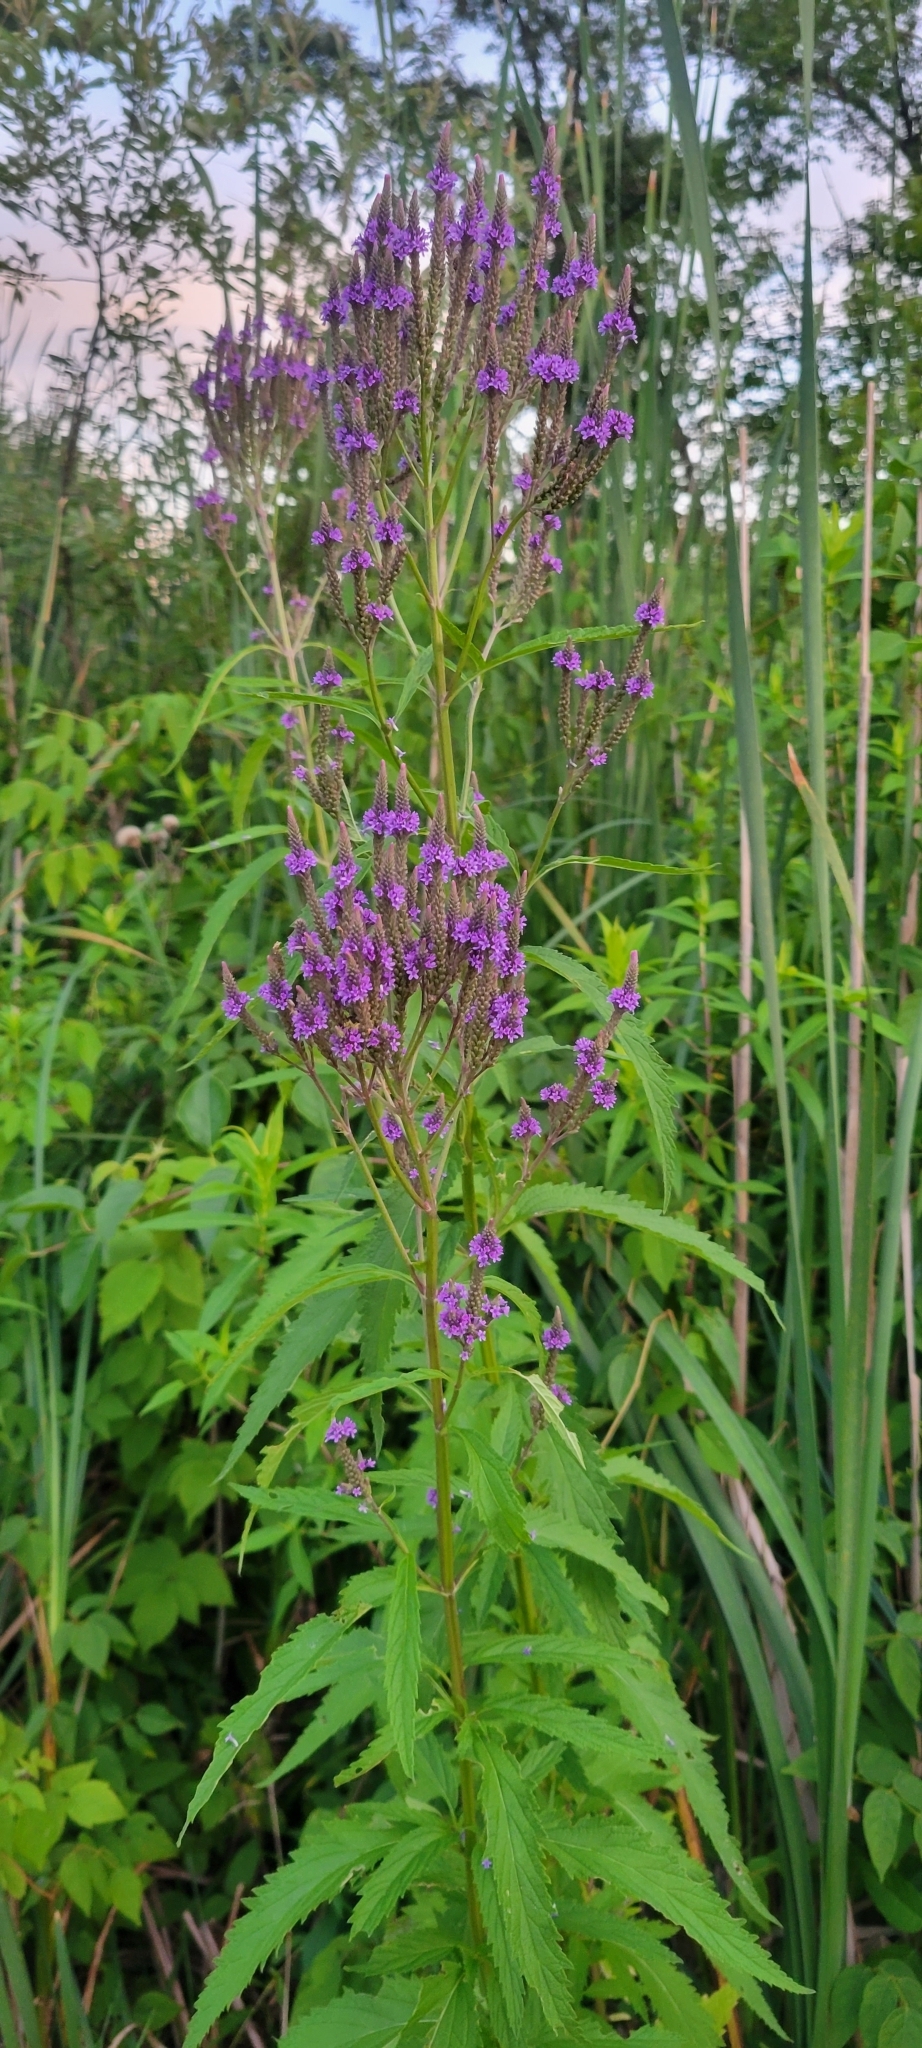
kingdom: Plantae
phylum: Tracheophyta
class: Magnoliopsida
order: Lamiales
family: Verbenaceae
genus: Verbena
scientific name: Verbena hastata
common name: American blue vervain
